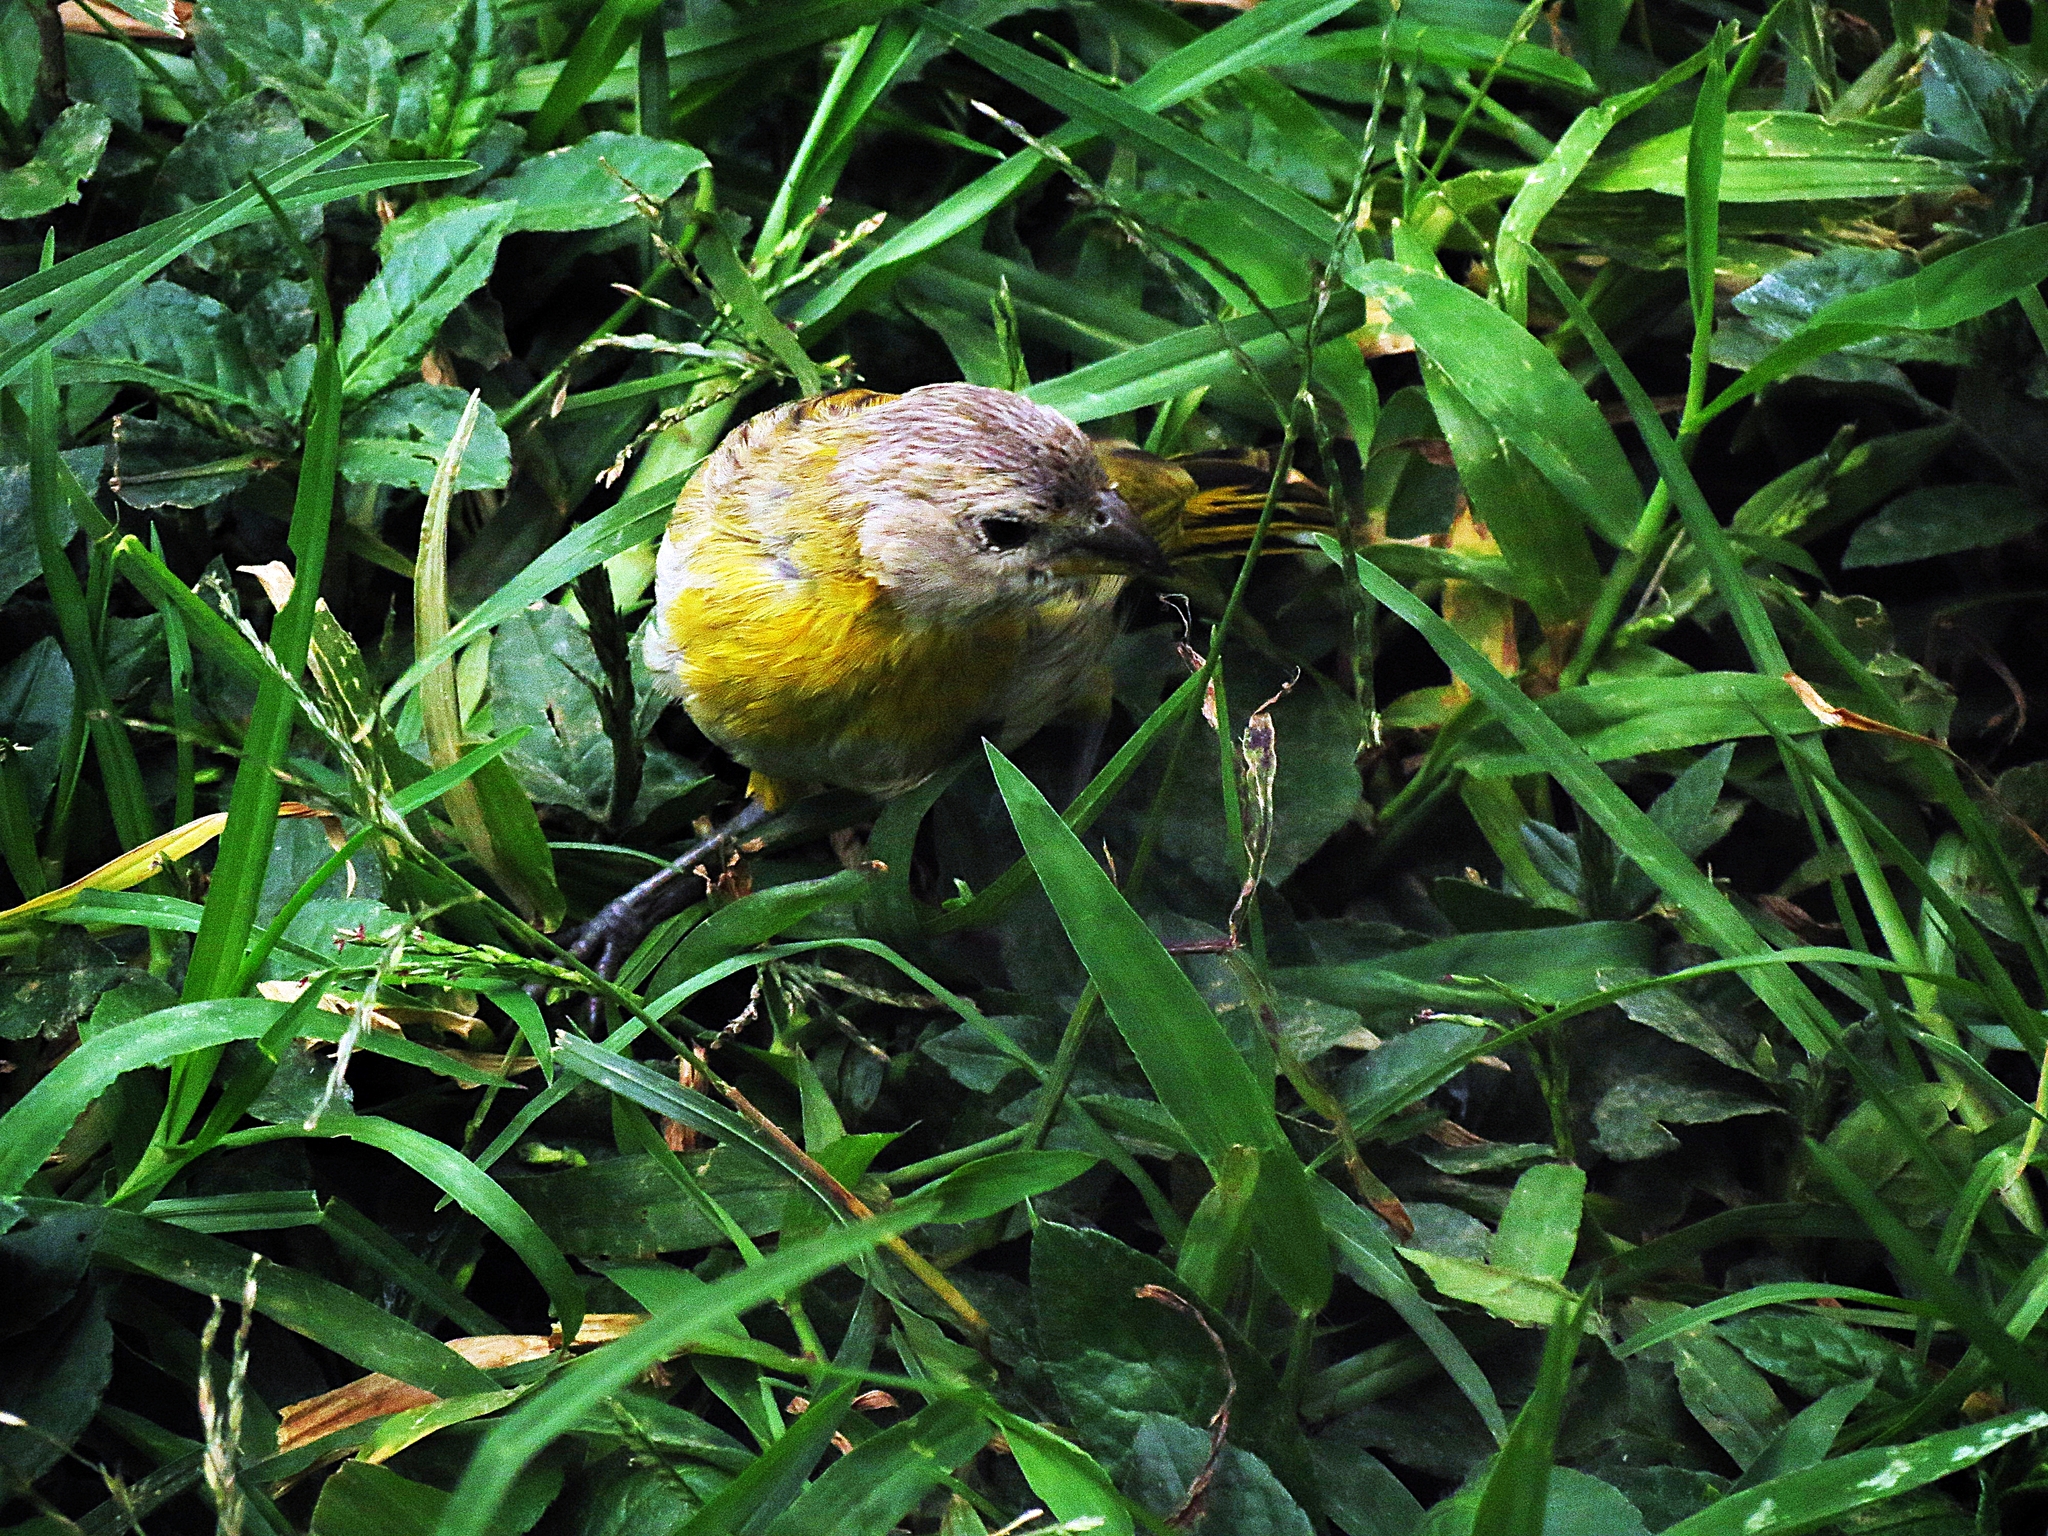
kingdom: Animalia
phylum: Chordata
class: Aves
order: Passeriformes
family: Thraupidae
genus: Sicalis
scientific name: Sicalis flaveola
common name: Saffron finch
